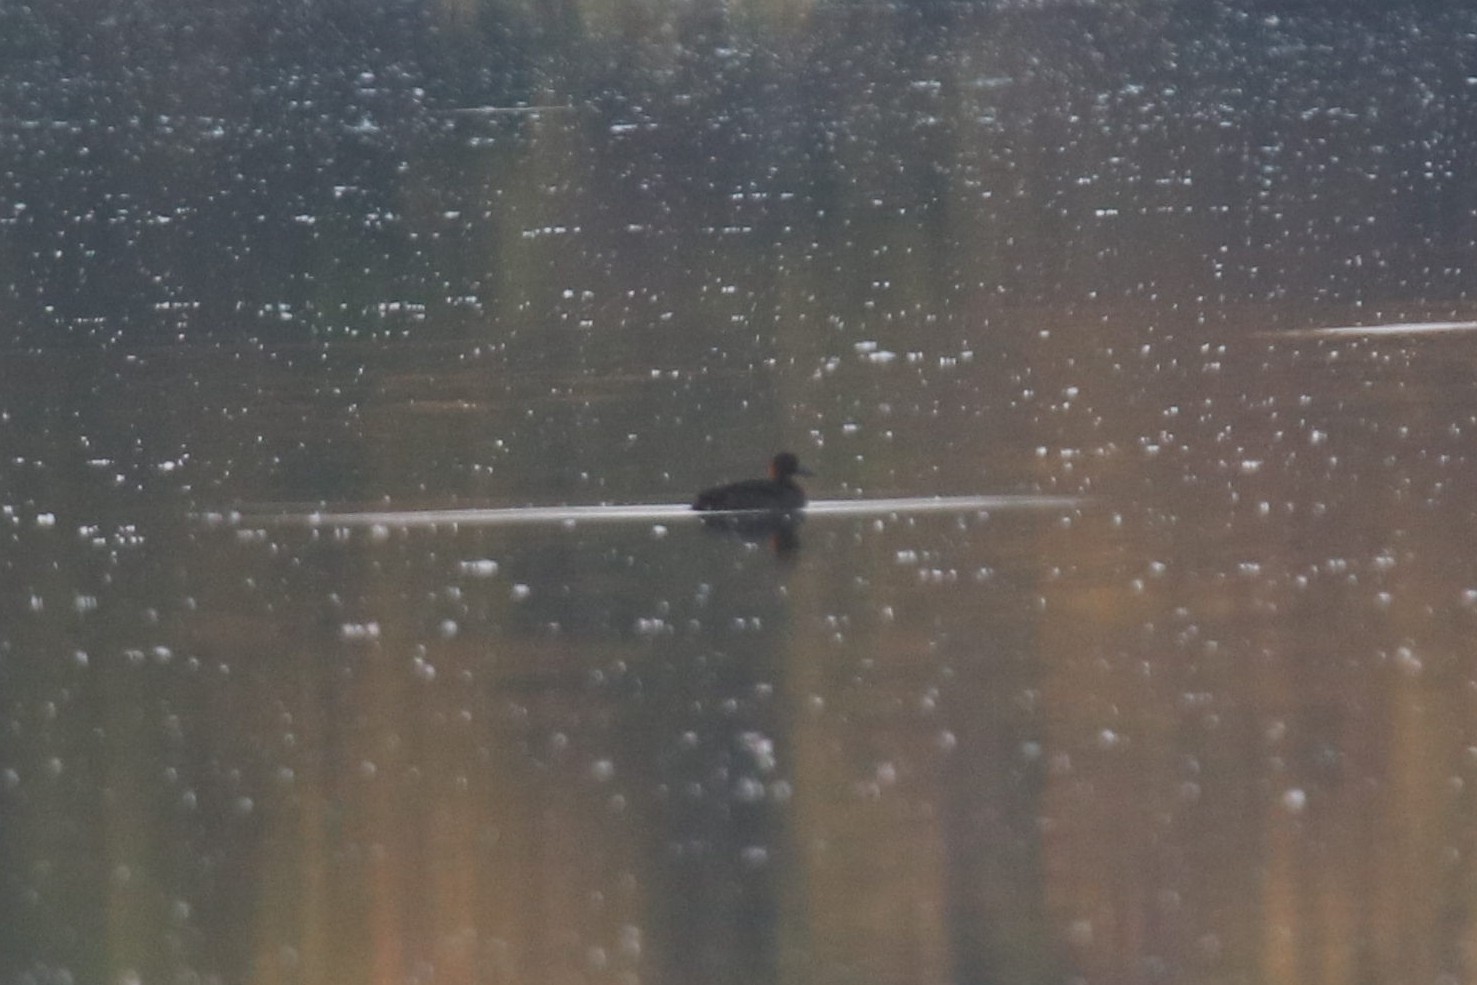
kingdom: Animalia
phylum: Chordata
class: Aves
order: Anseriformes
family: Anatidae
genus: Aythya
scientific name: Aythya fuligula
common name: Tufted duck
